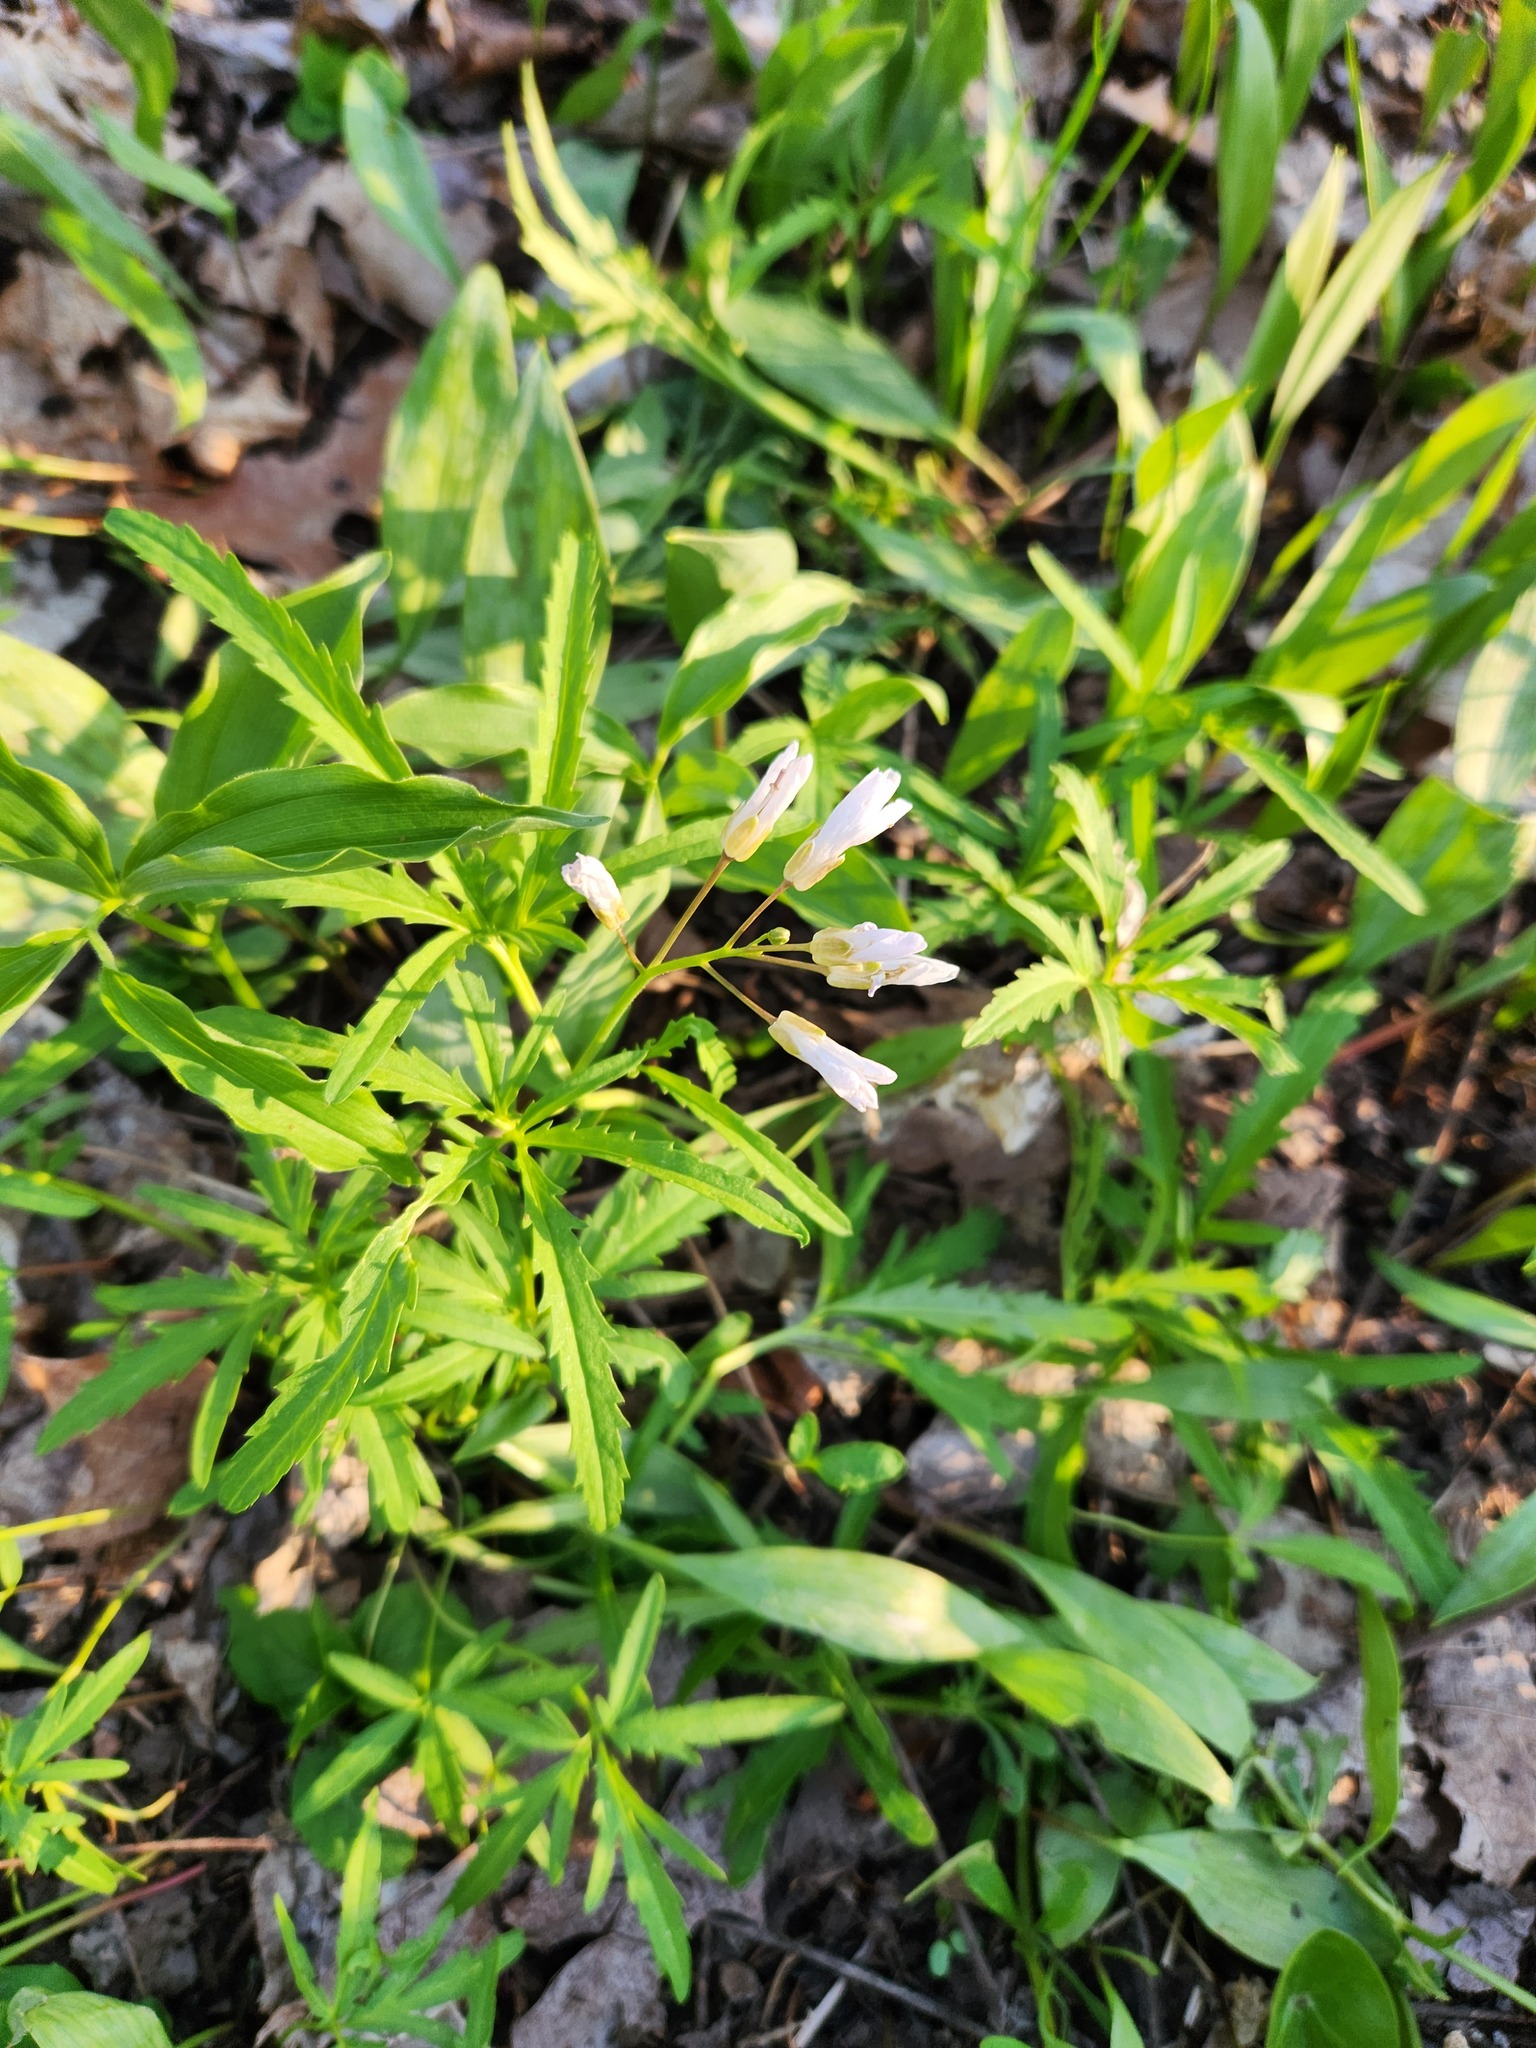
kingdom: Plantae
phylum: Tracheophyta
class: Magnoliopsida
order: Brassicales
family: Brassicaceae
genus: Cardamine
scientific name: Cardamine concatenata
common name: Cut-leaf toothcup
